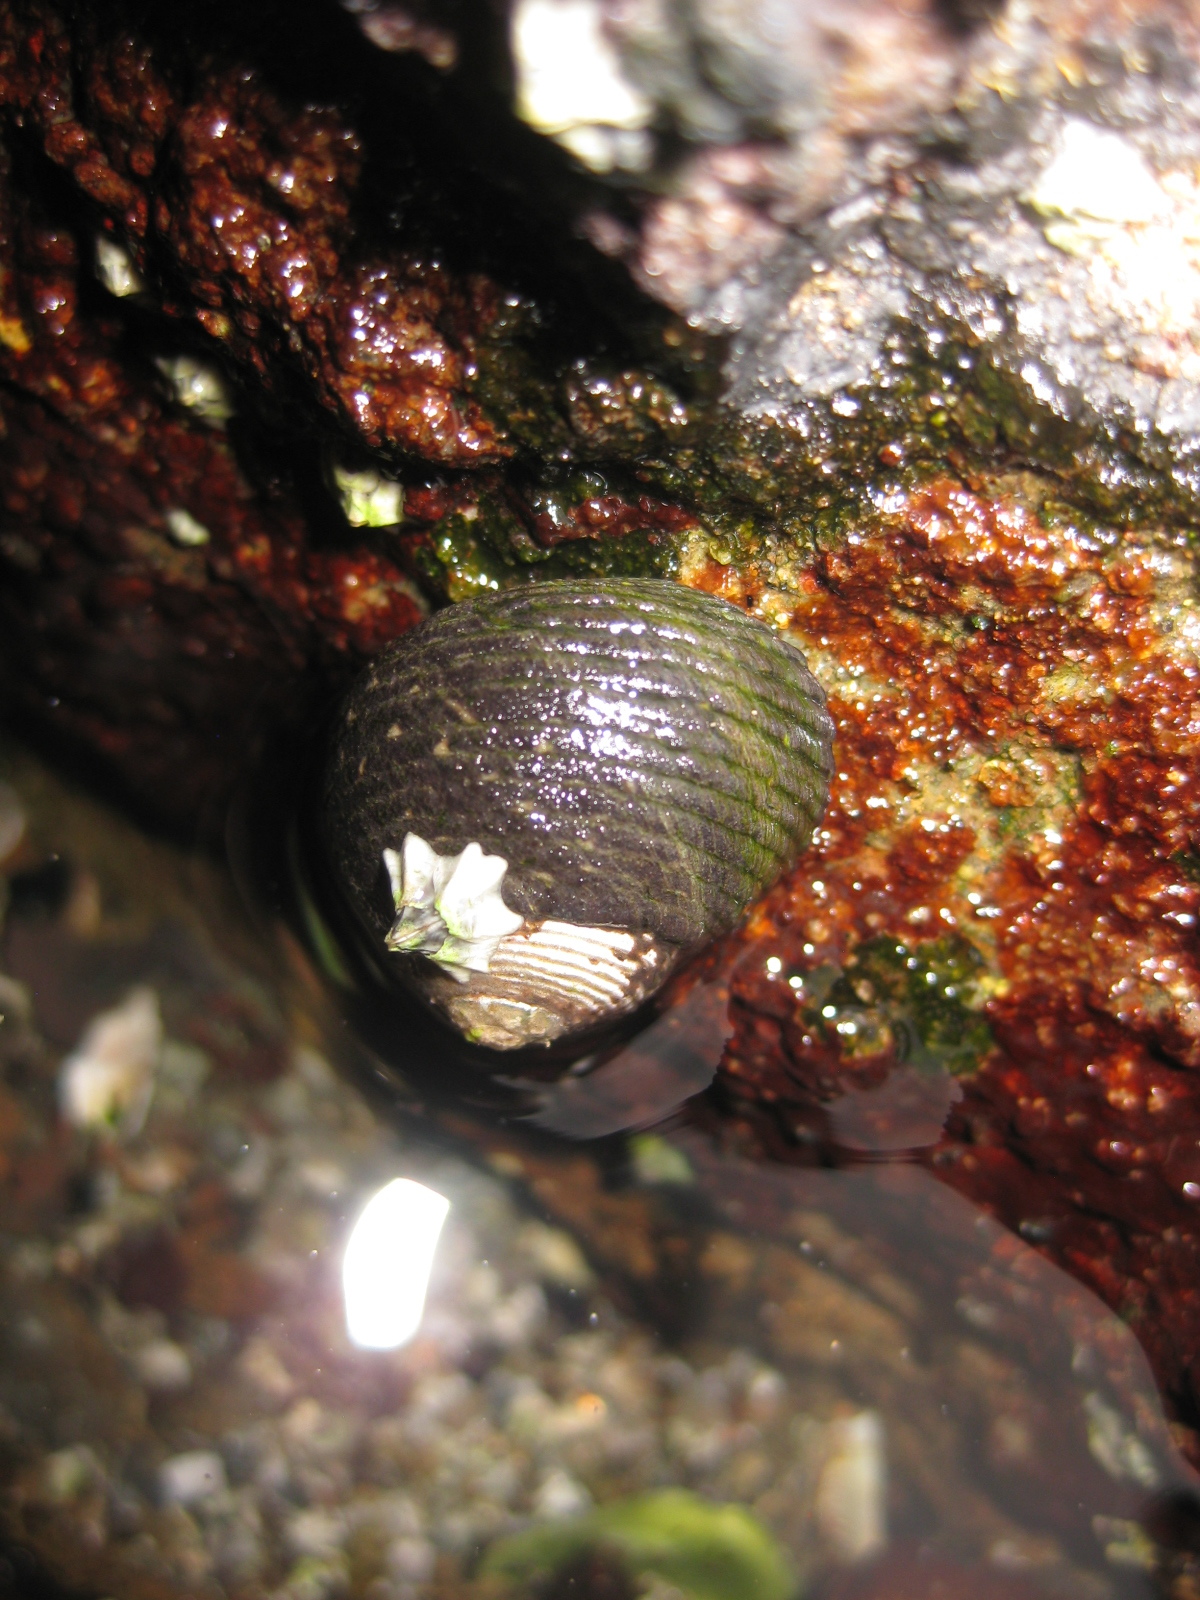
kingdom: Animalia
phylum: Mollusca
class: Gastropoda
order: Trochida
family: Trochidae
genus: Diloma
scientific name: Diloma zelandicum
